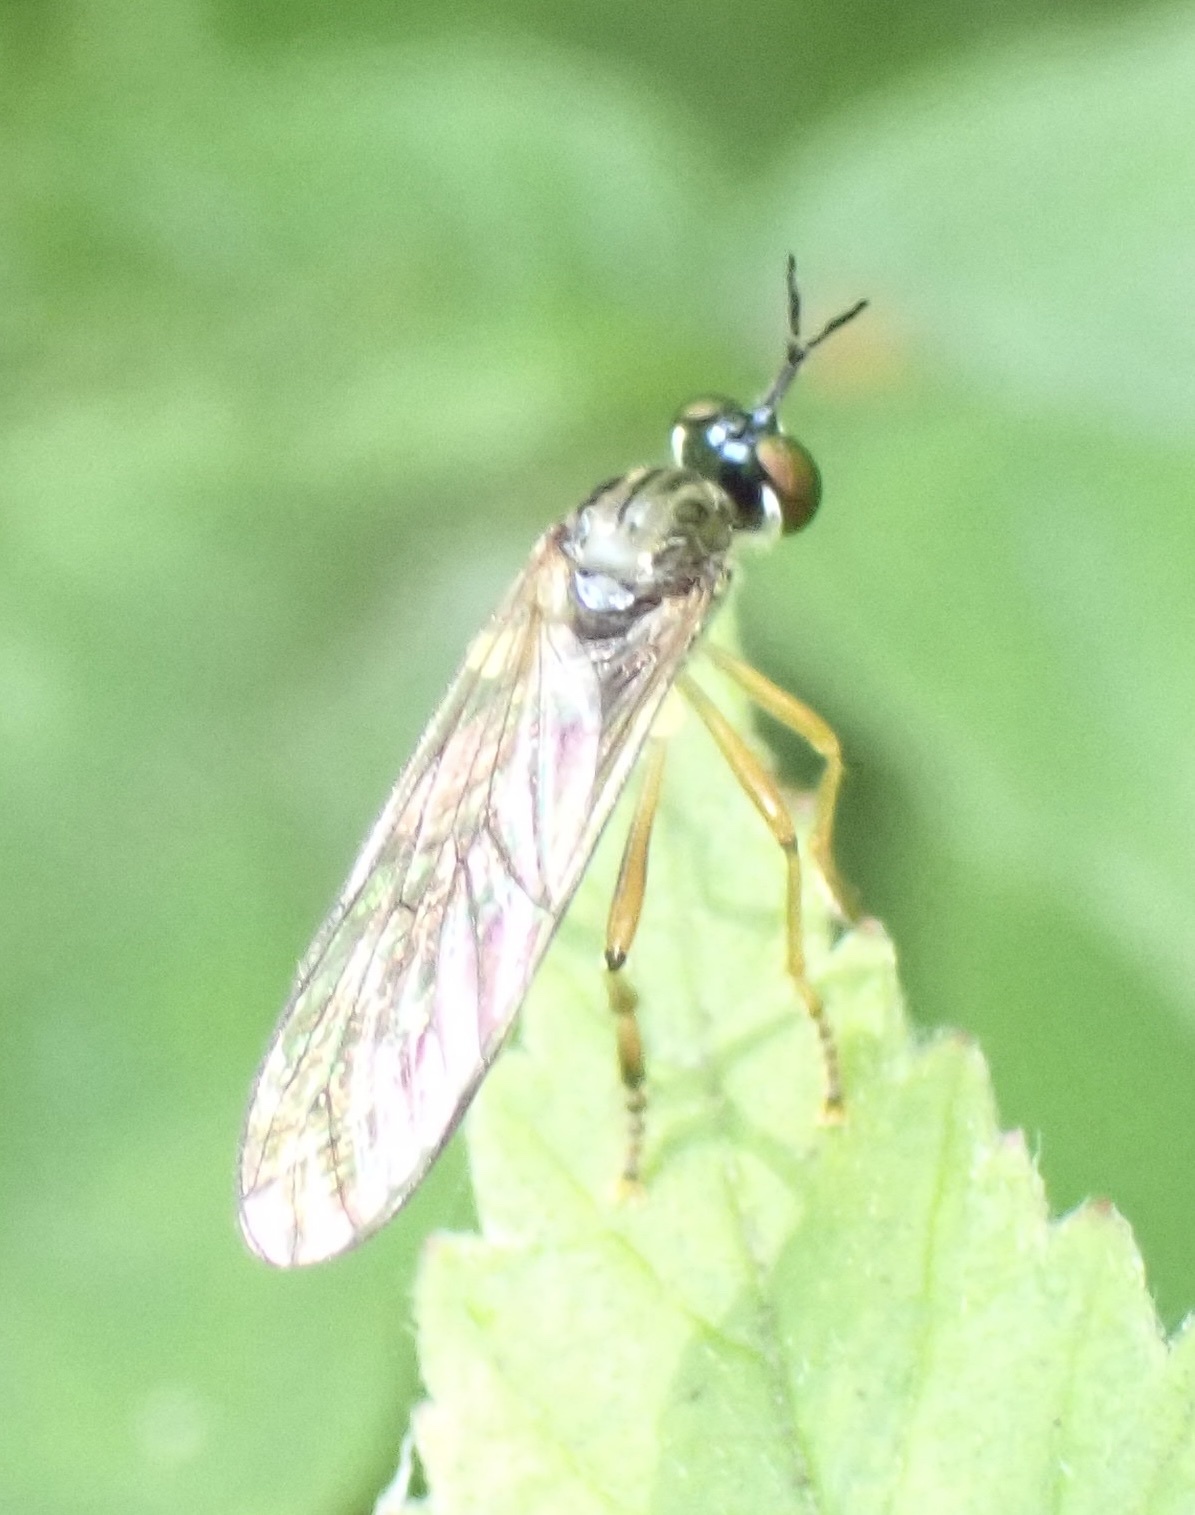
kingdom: Animalia
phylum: Arthropoda
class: Insecta
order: Diptera
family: Asilidae
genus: Dioctria
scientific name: Dioctria linearis
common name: Small yellow-legged robberfly
